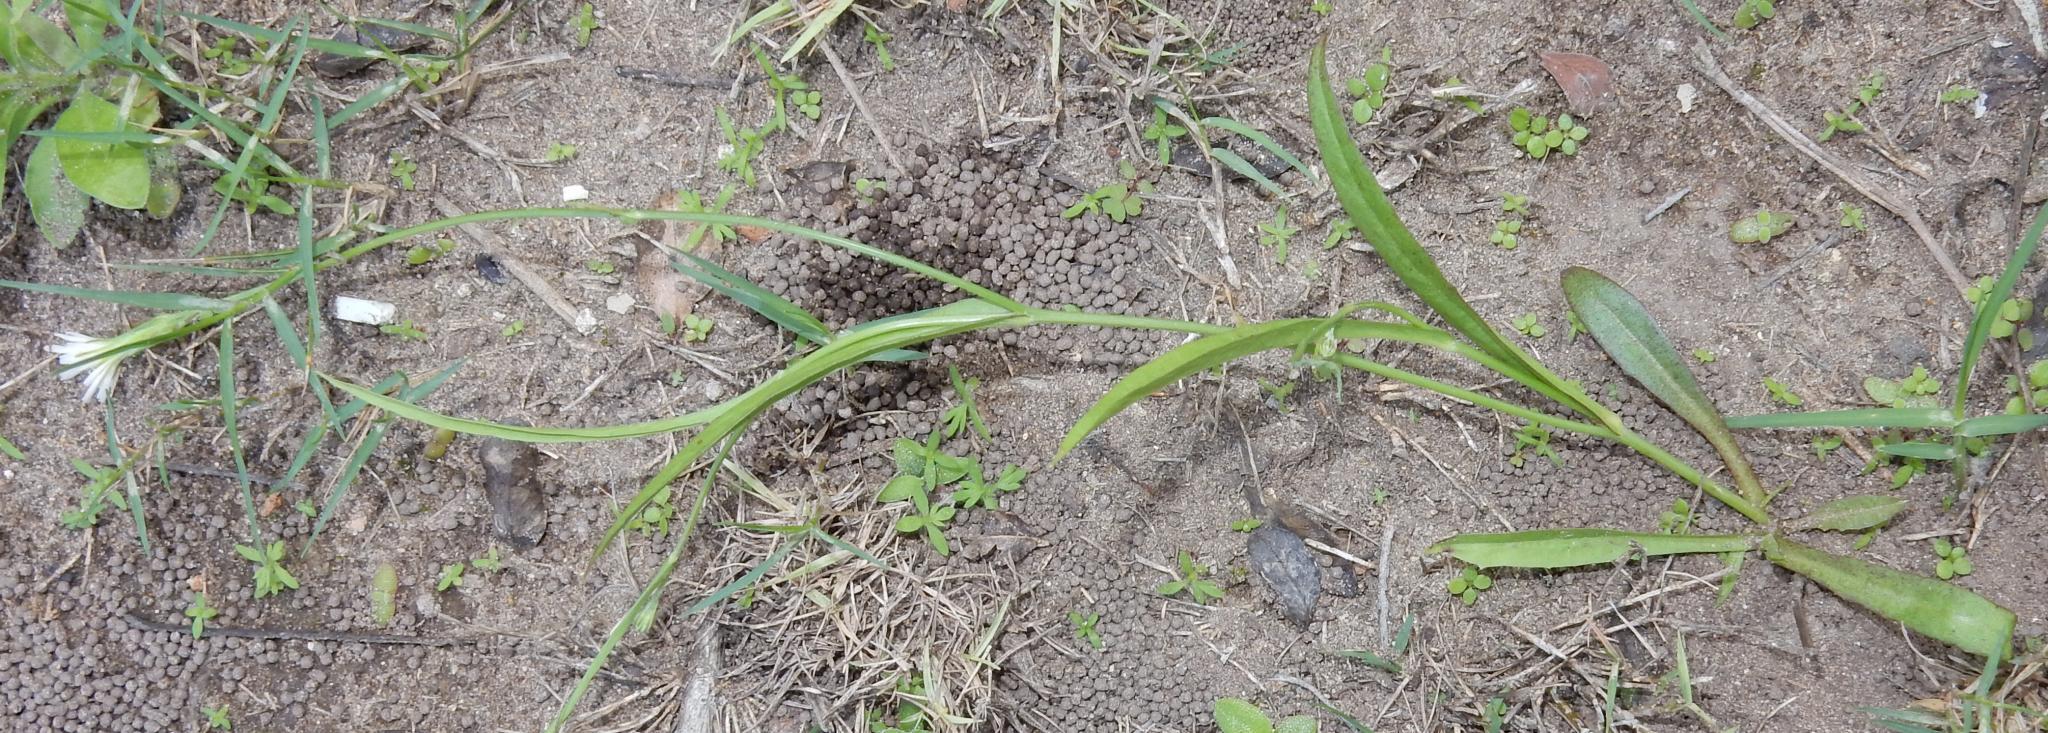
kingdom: Plantae
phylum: Tracheophyta
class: Magnoliopsida
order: Asterales
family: Asteraceae
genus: Hypochaeris
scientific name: Hypochaeris albiflora
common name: White flatweed
